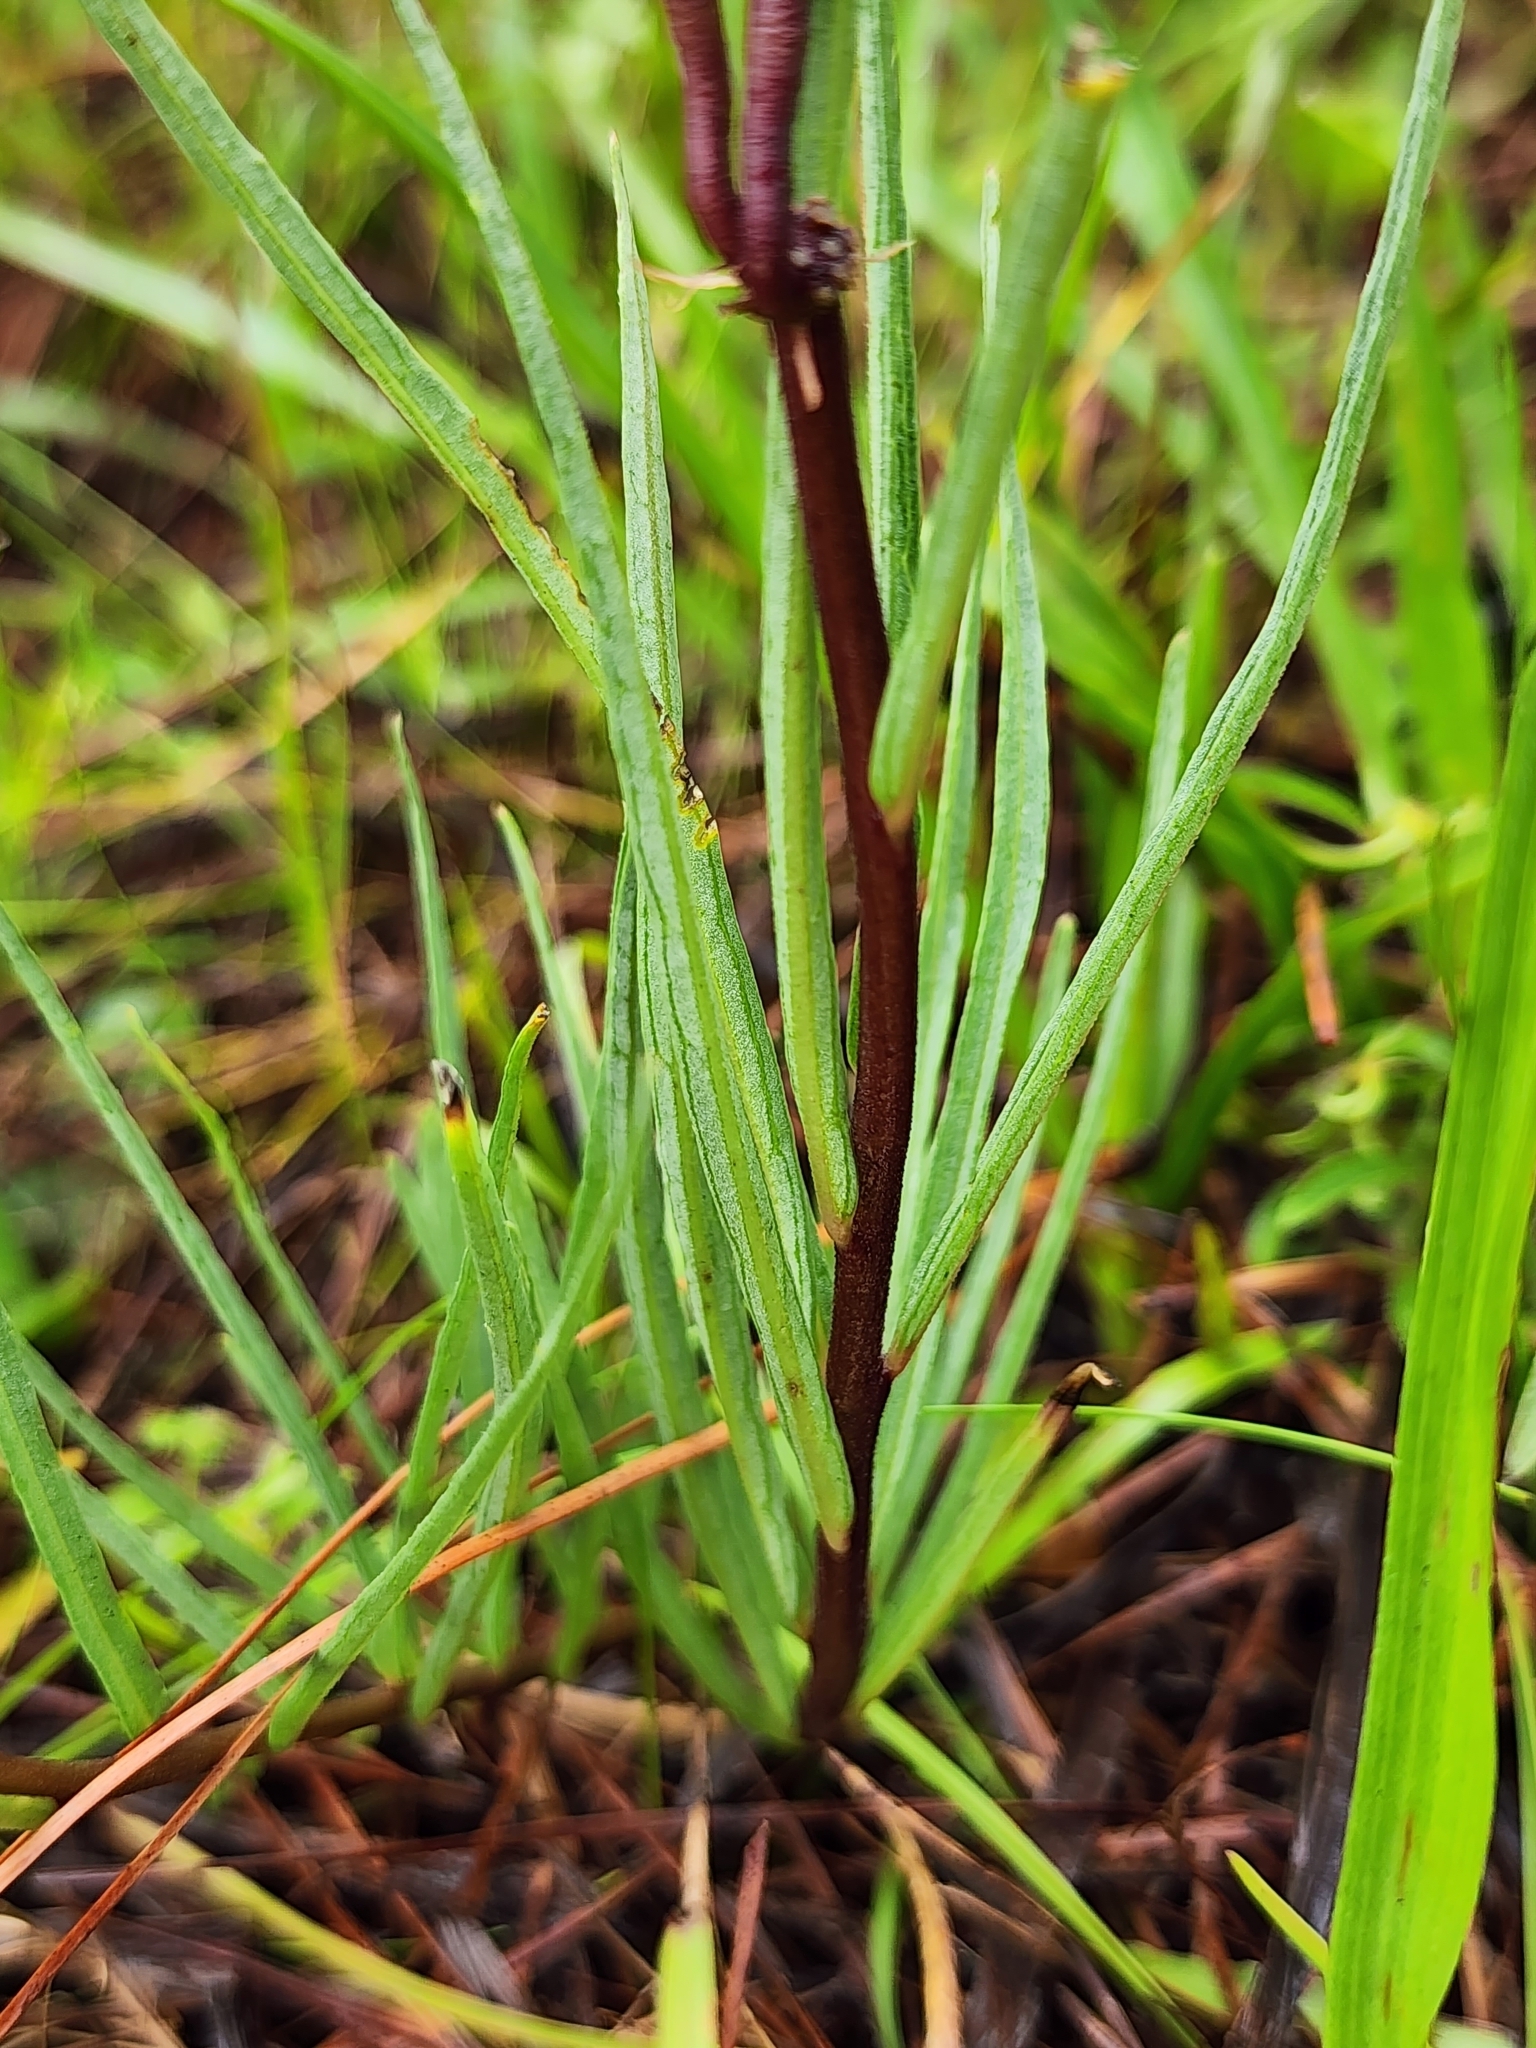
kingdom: Plantae
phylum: Tracheophyta
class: Magnoliopsida
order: Gentianales
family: Apocynaceae
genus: Asclepias
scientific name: Asclepias michauxii
